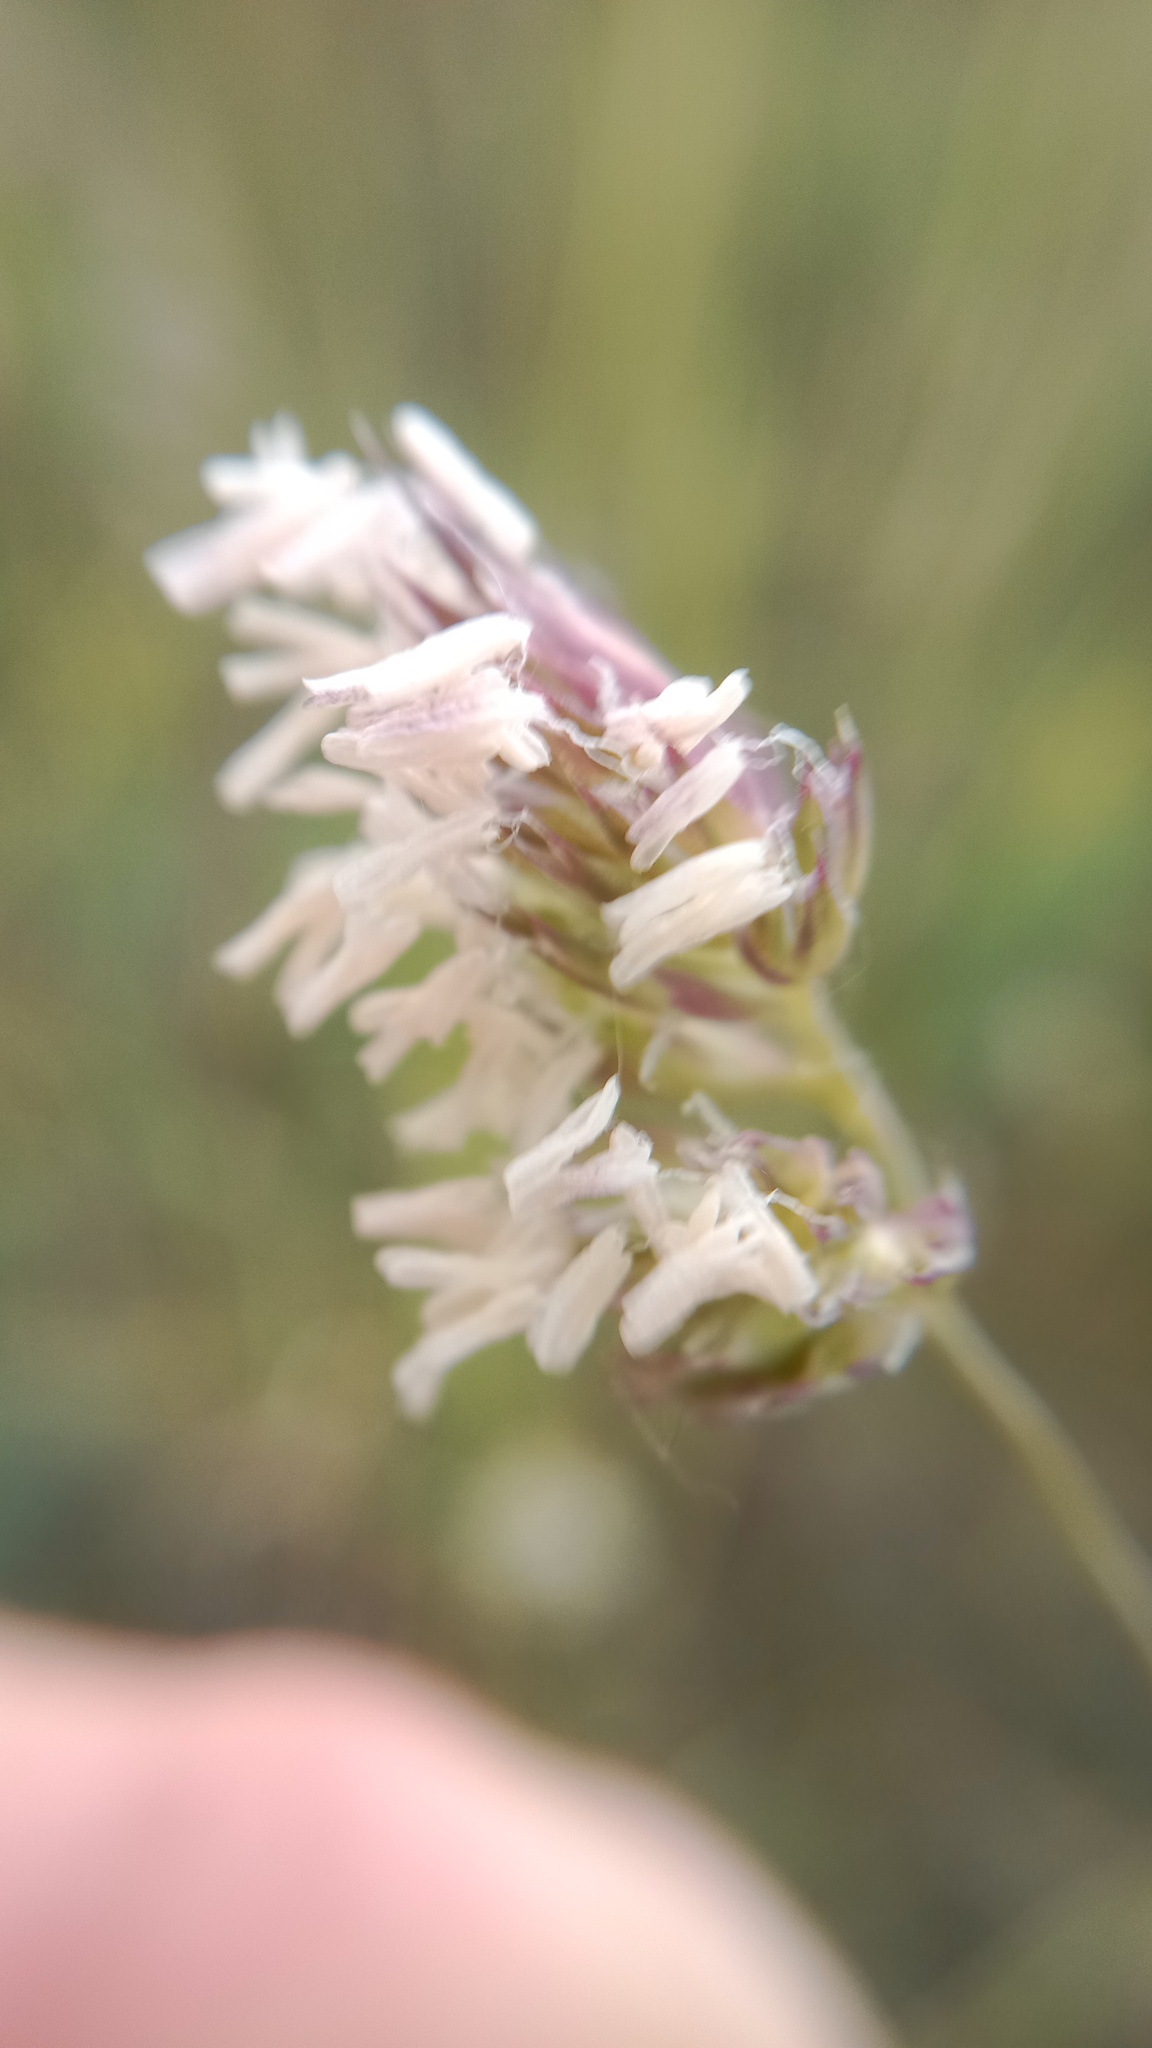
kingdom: Plantae
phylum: Tracheophyta
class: Liliopsida
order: Poales
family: Poaceae
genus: Dactylis
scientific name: Dactylis glomerata
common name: Orchardgrass
